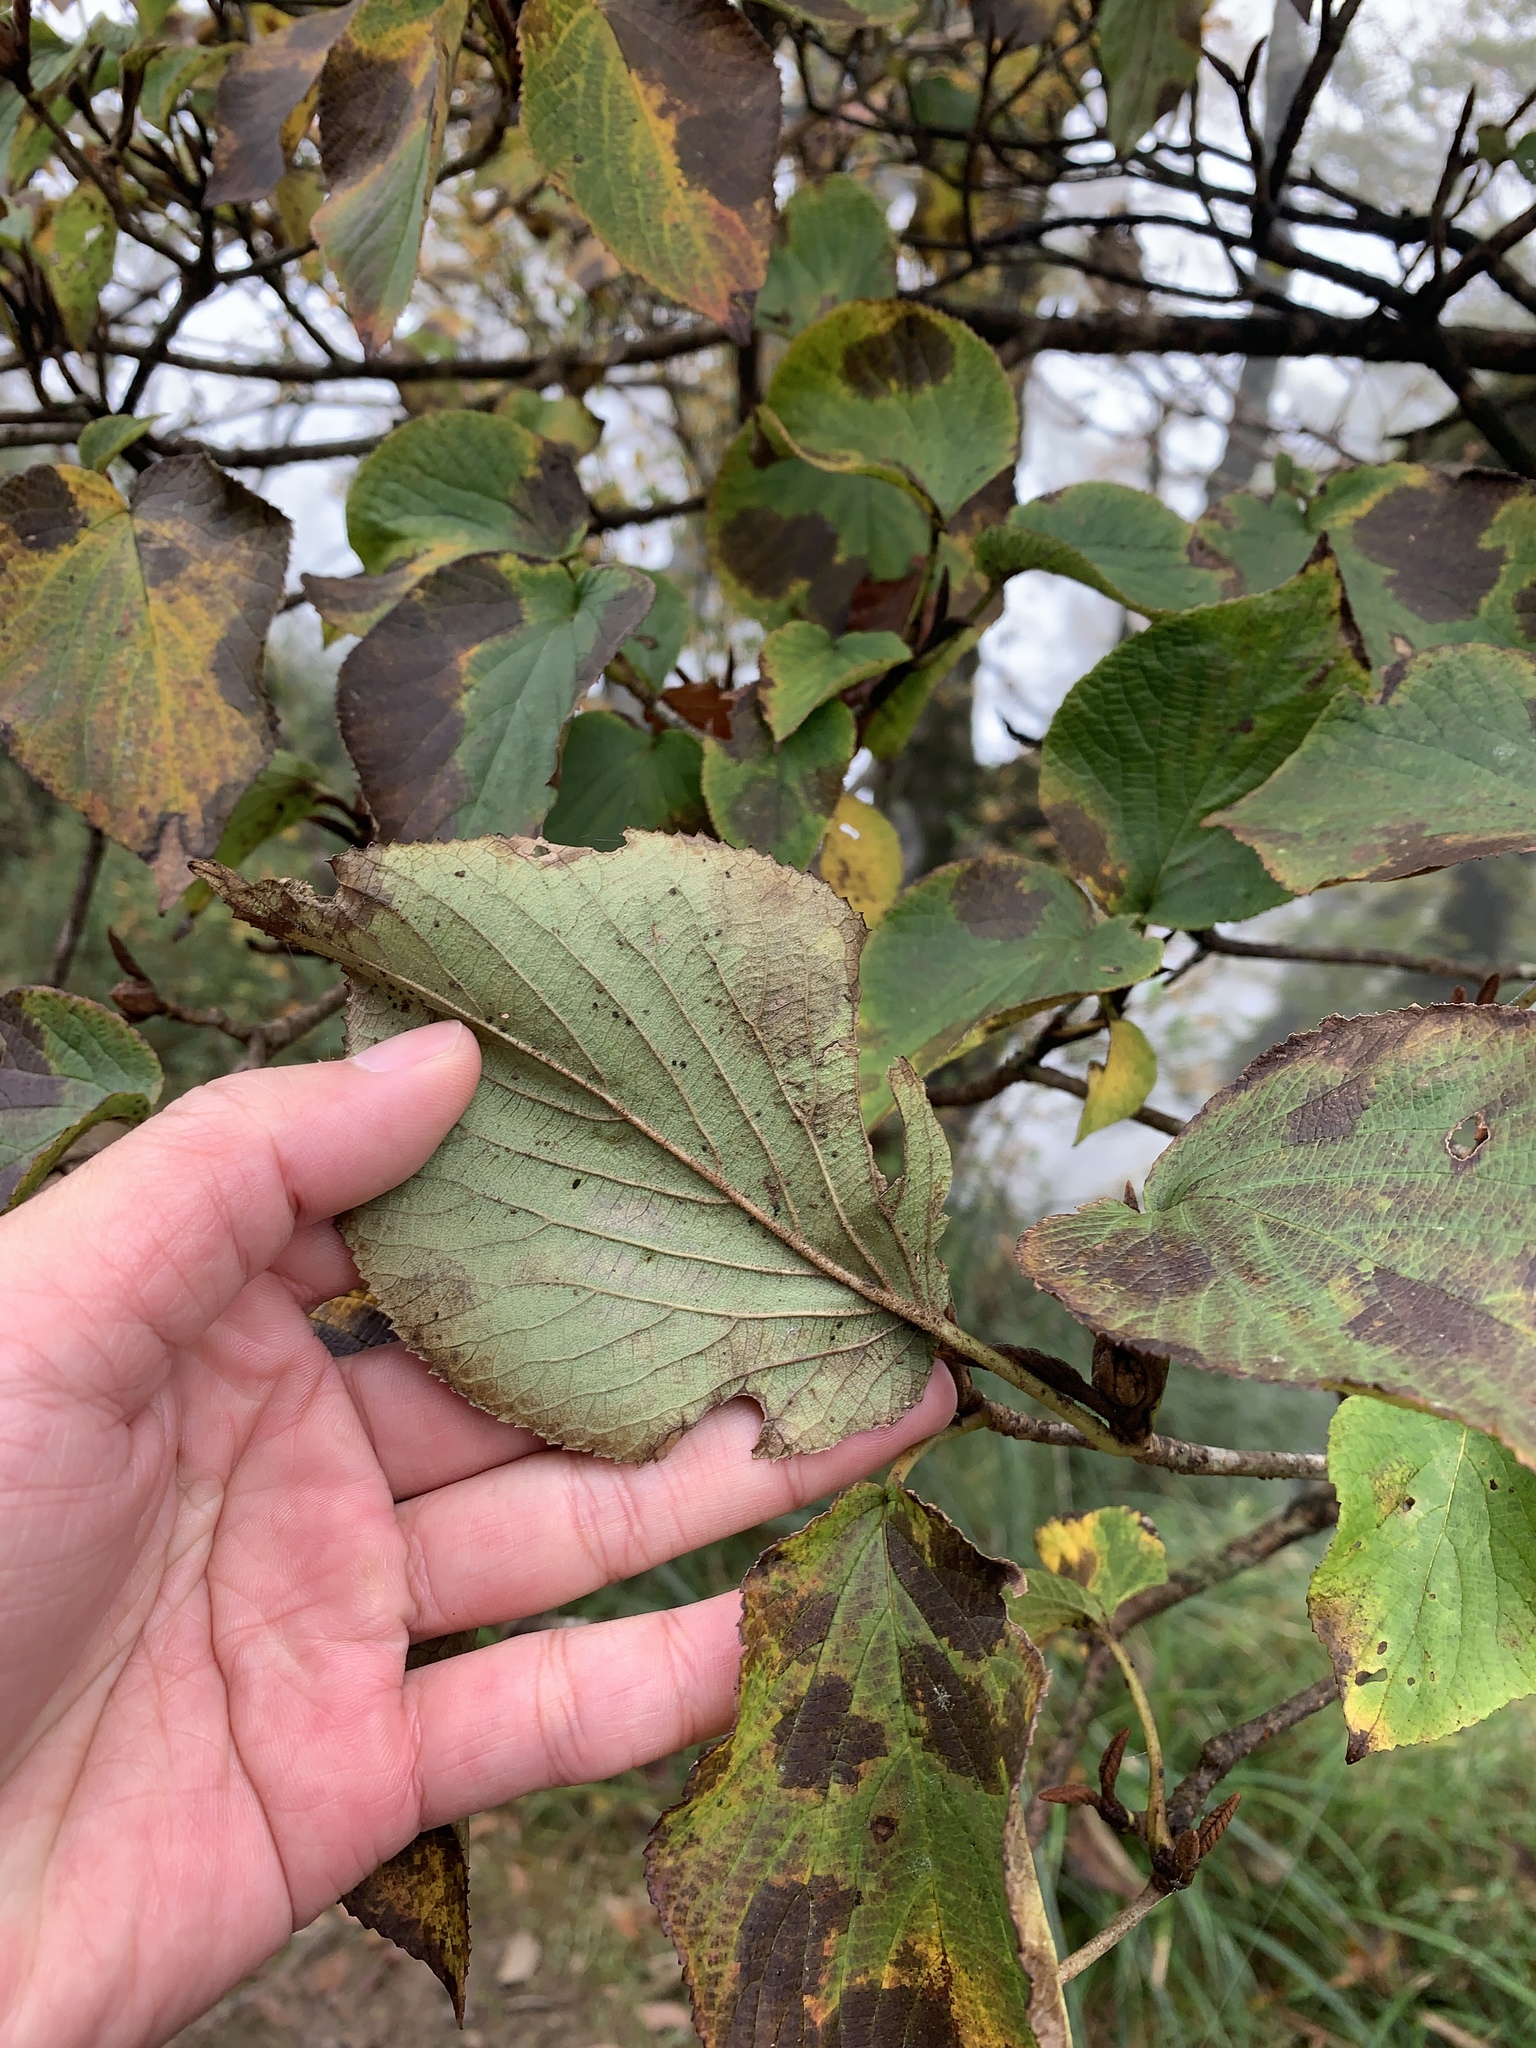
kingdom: Plantae
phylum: Tracheophyta
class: Magnoliopsida
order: Dipsacales
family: Viburnaceae
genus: Viburnum
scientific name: Viburnum furcatum
